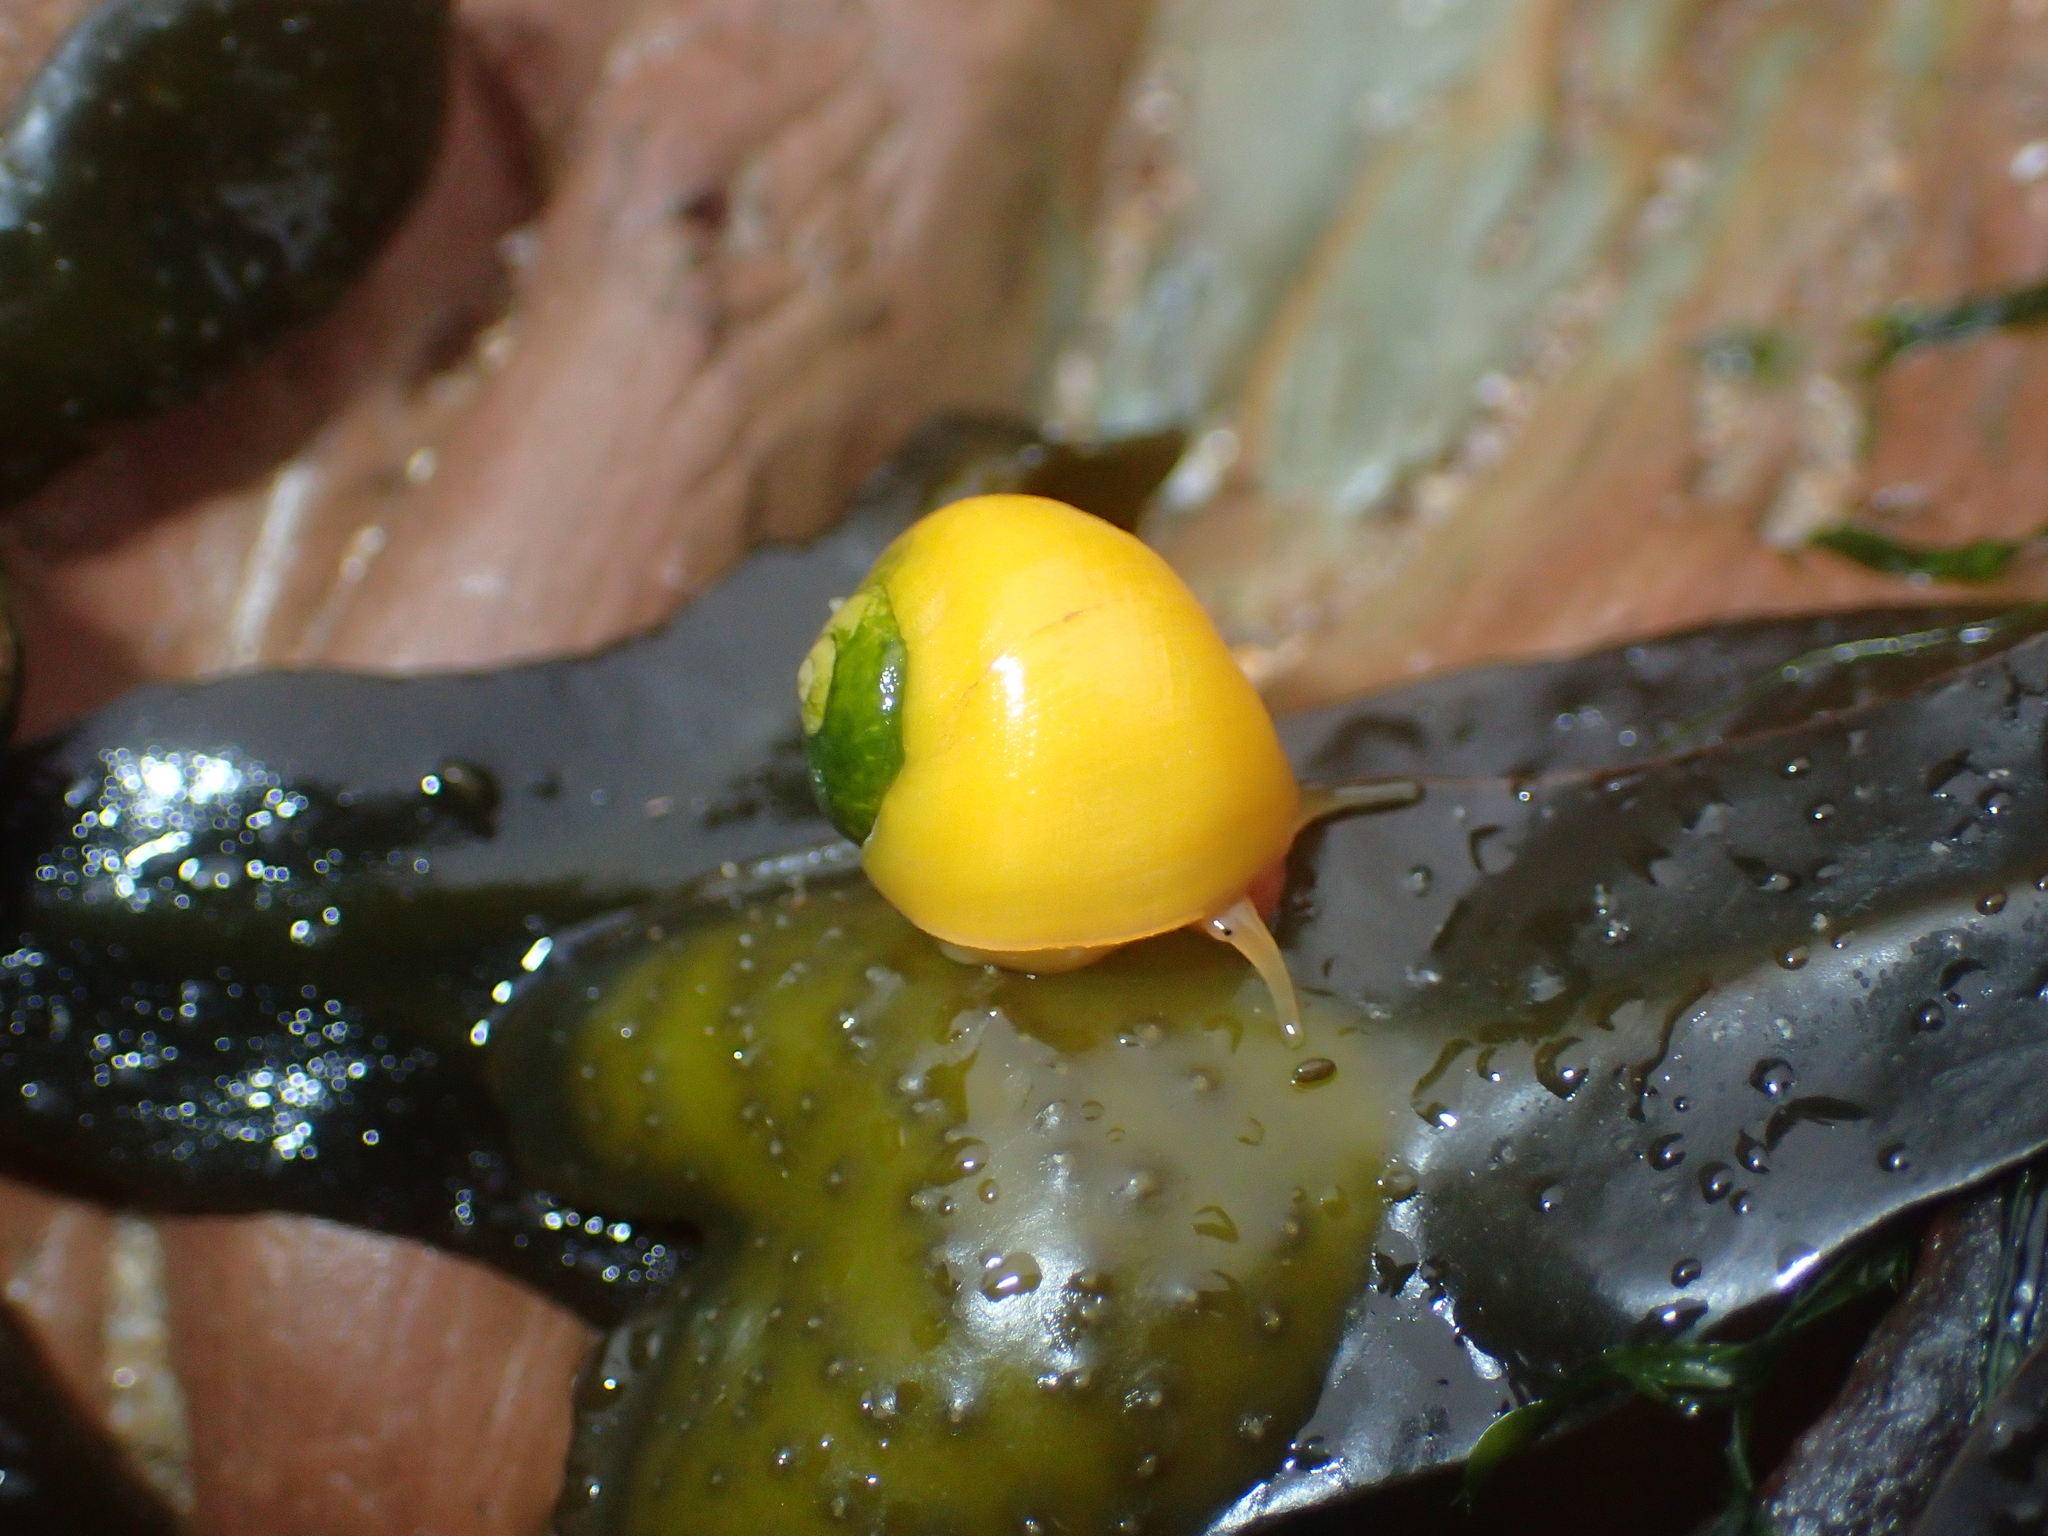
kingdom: Animalia
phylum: Mollusca
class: Gastropoda
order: Littorinimorpha
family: Littorinidae
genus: Littorina
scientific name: Littorina obtusata
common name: Flat periwinkle
